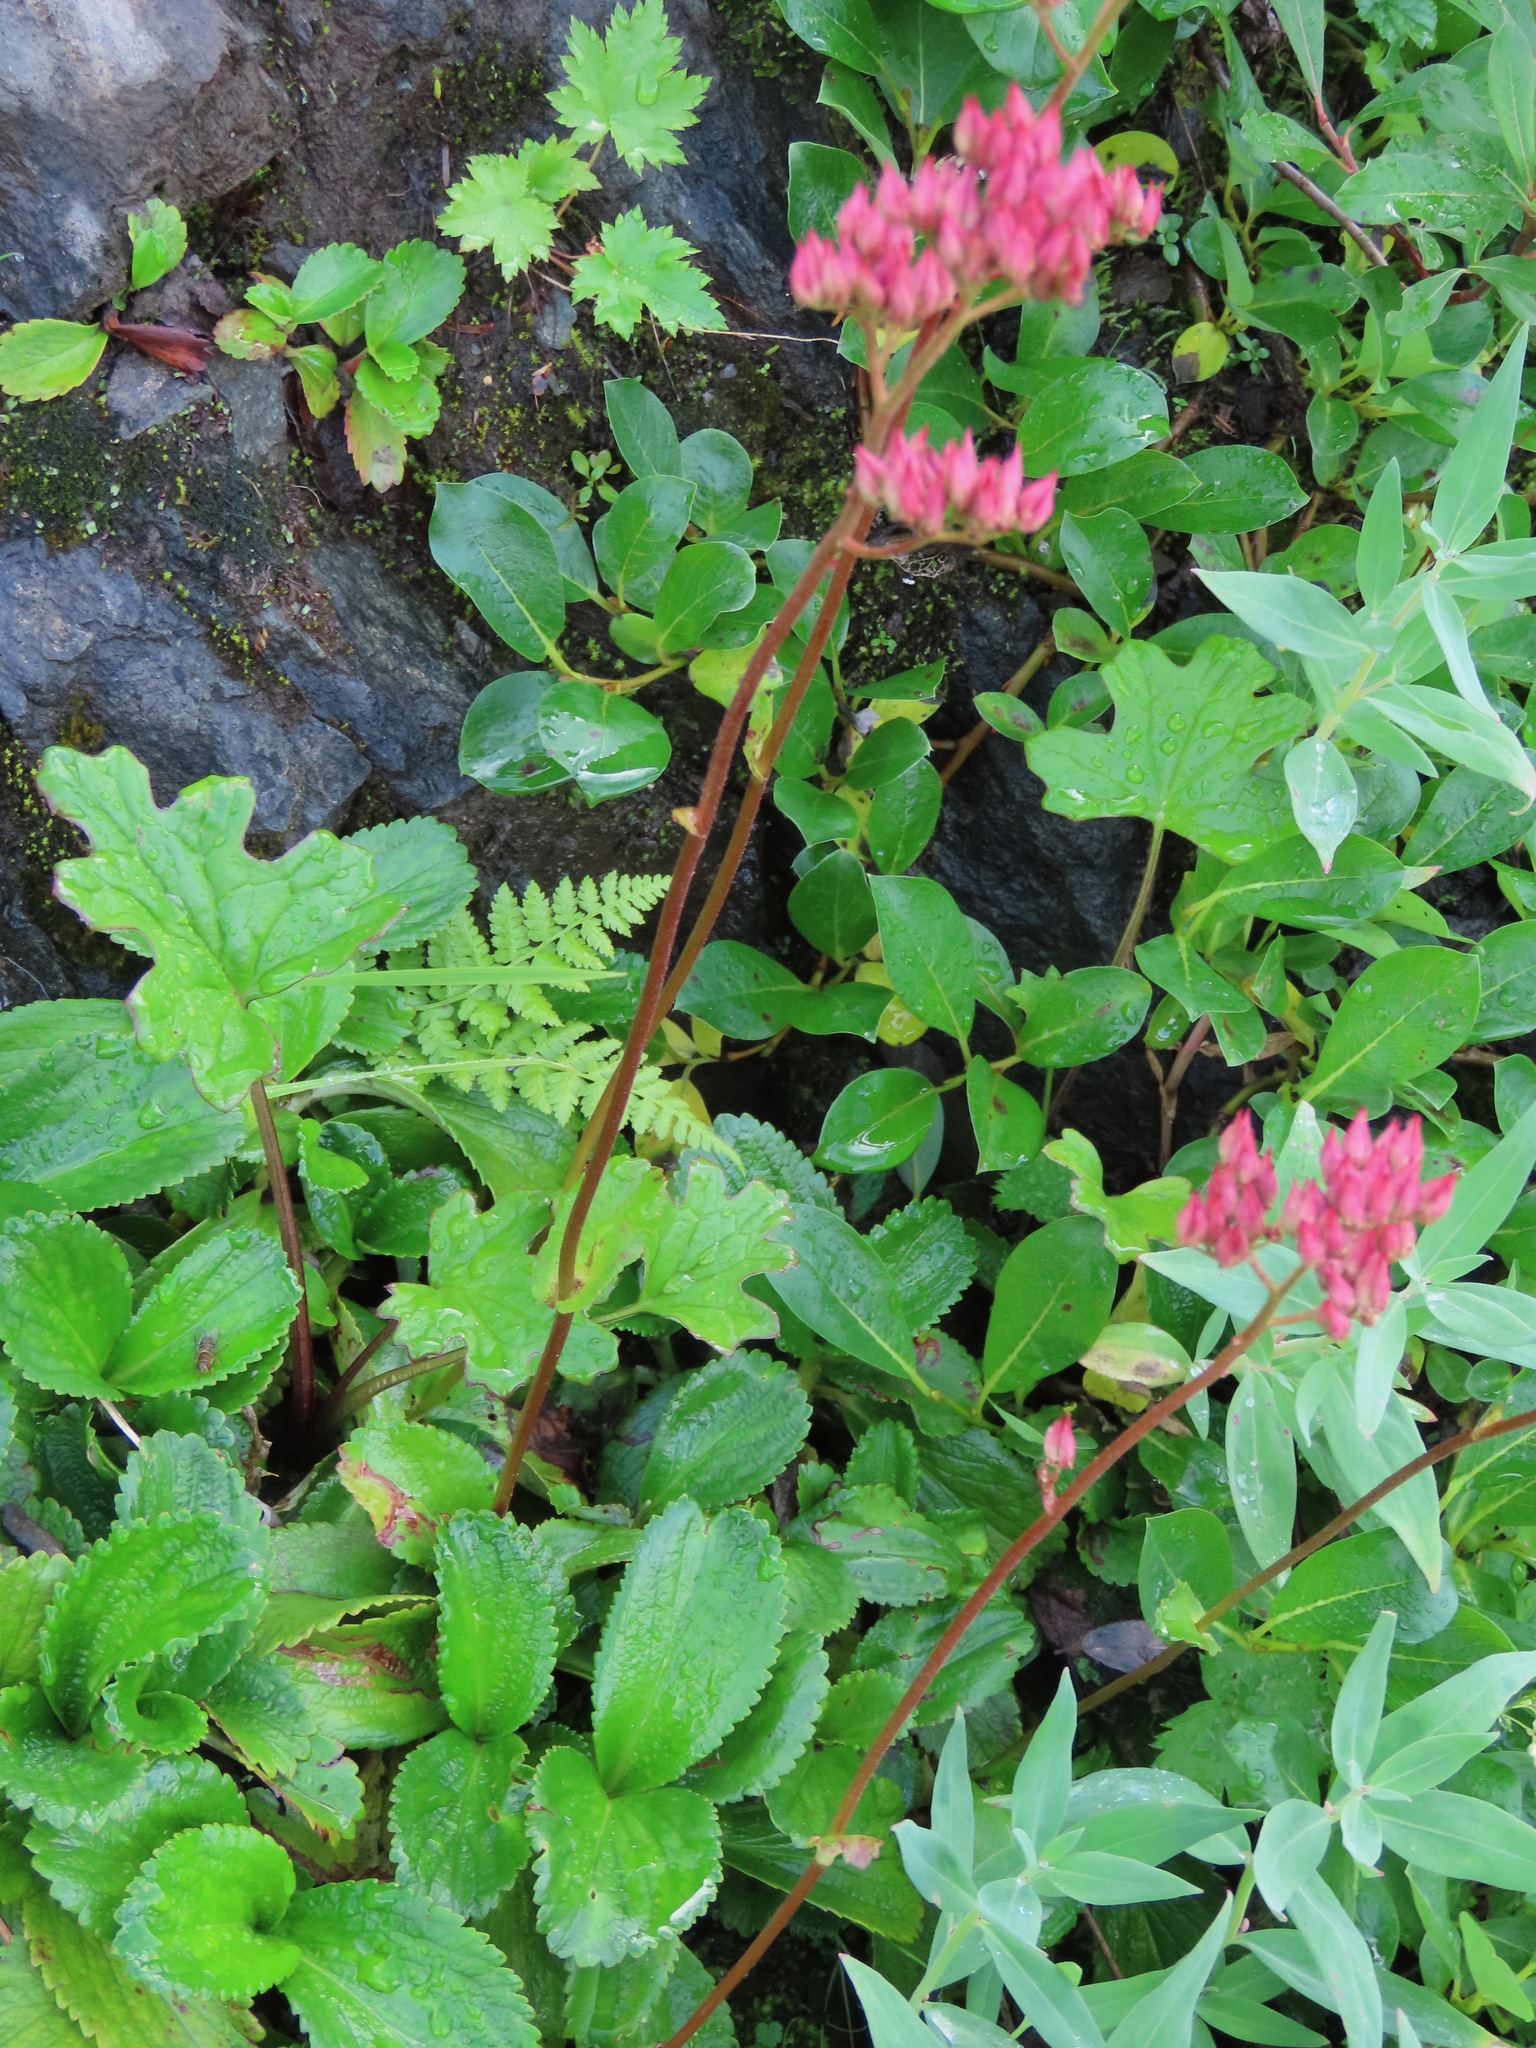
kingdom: Plantae
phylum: Tracheophyta
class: Magnoliopsida
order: Saxifragales
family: Saxifragaceae
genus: Leptarrhena
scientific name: Leptarrhena pyrolifolia
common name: Leatherleaf-saxifrage
